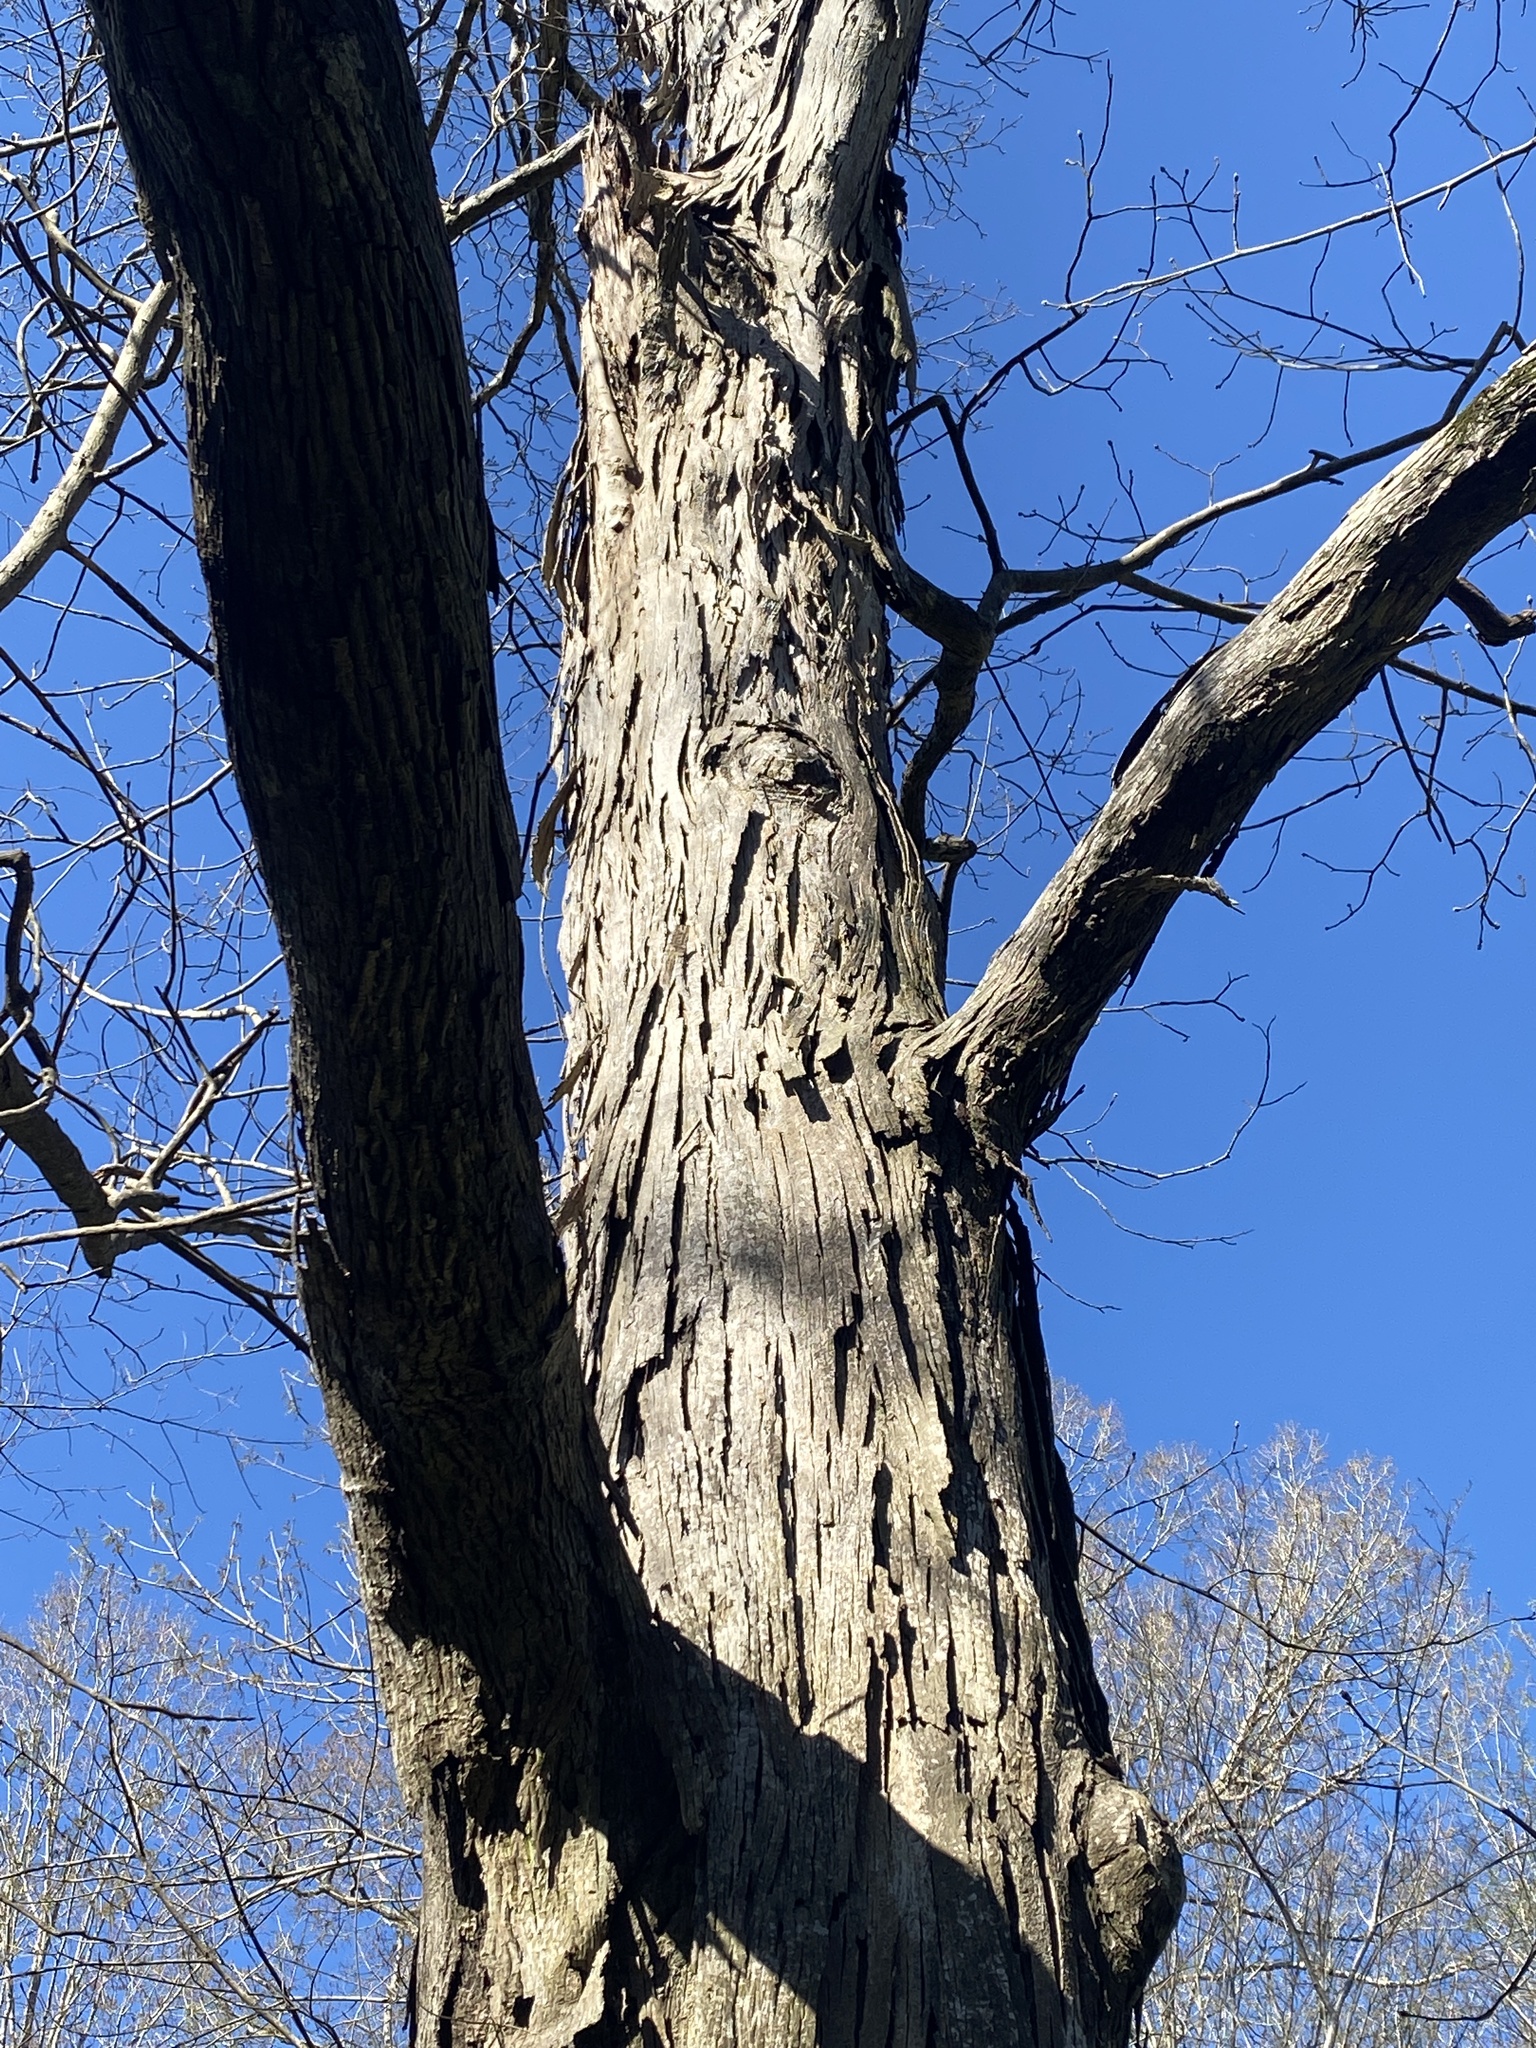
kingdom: Plantae
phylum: Tracheophyta
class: Magnoliopsida
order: Fagales
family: Juglandaceae
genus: Carya
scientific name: Carya ovata
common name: Shagbark hickory
